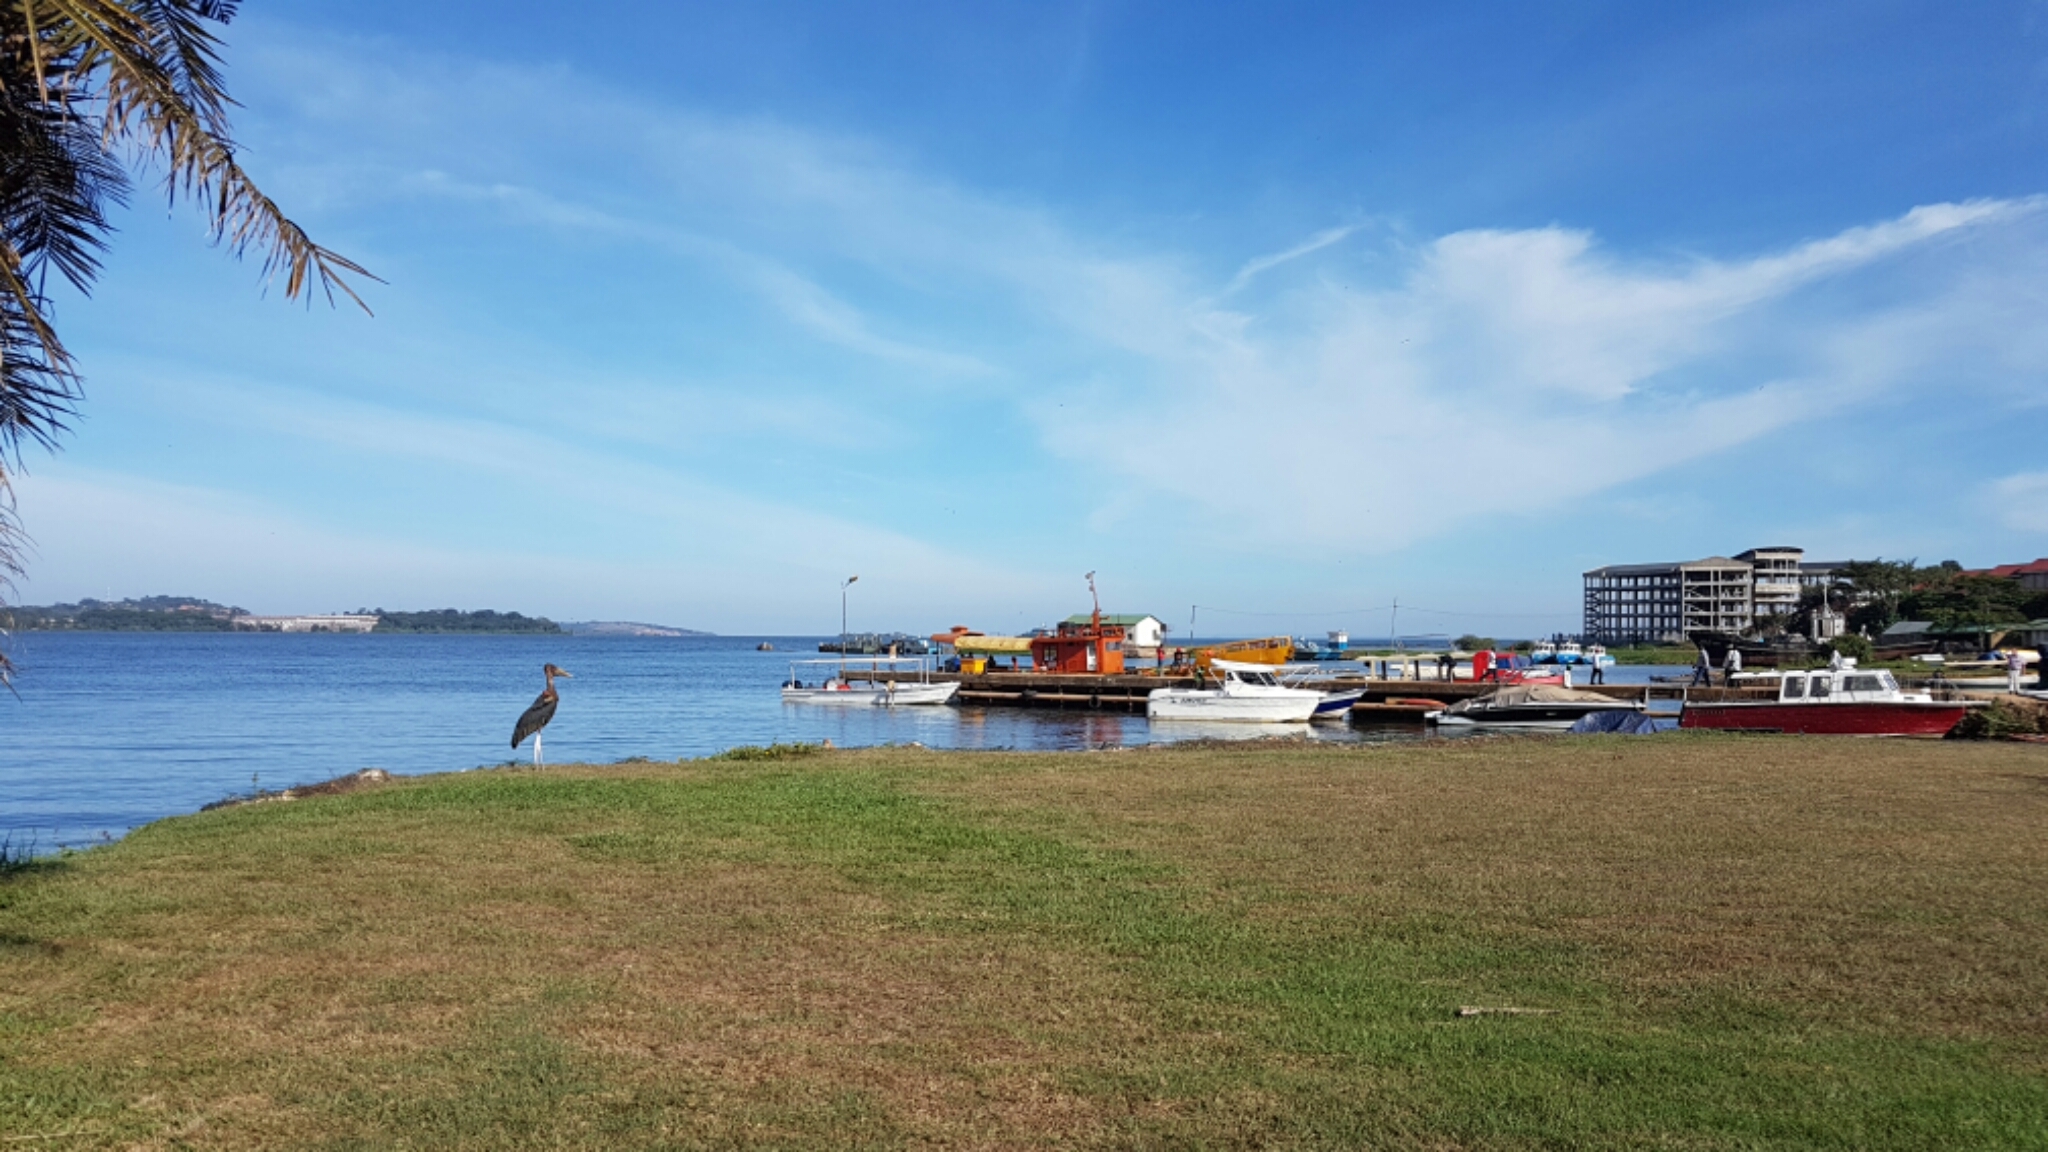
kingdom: Animalia
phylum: Chordata
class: Aves
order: Ciconiiformes
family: Ciconiidae
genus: Leptoptilos
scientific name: Leptoptilos crumenifer
